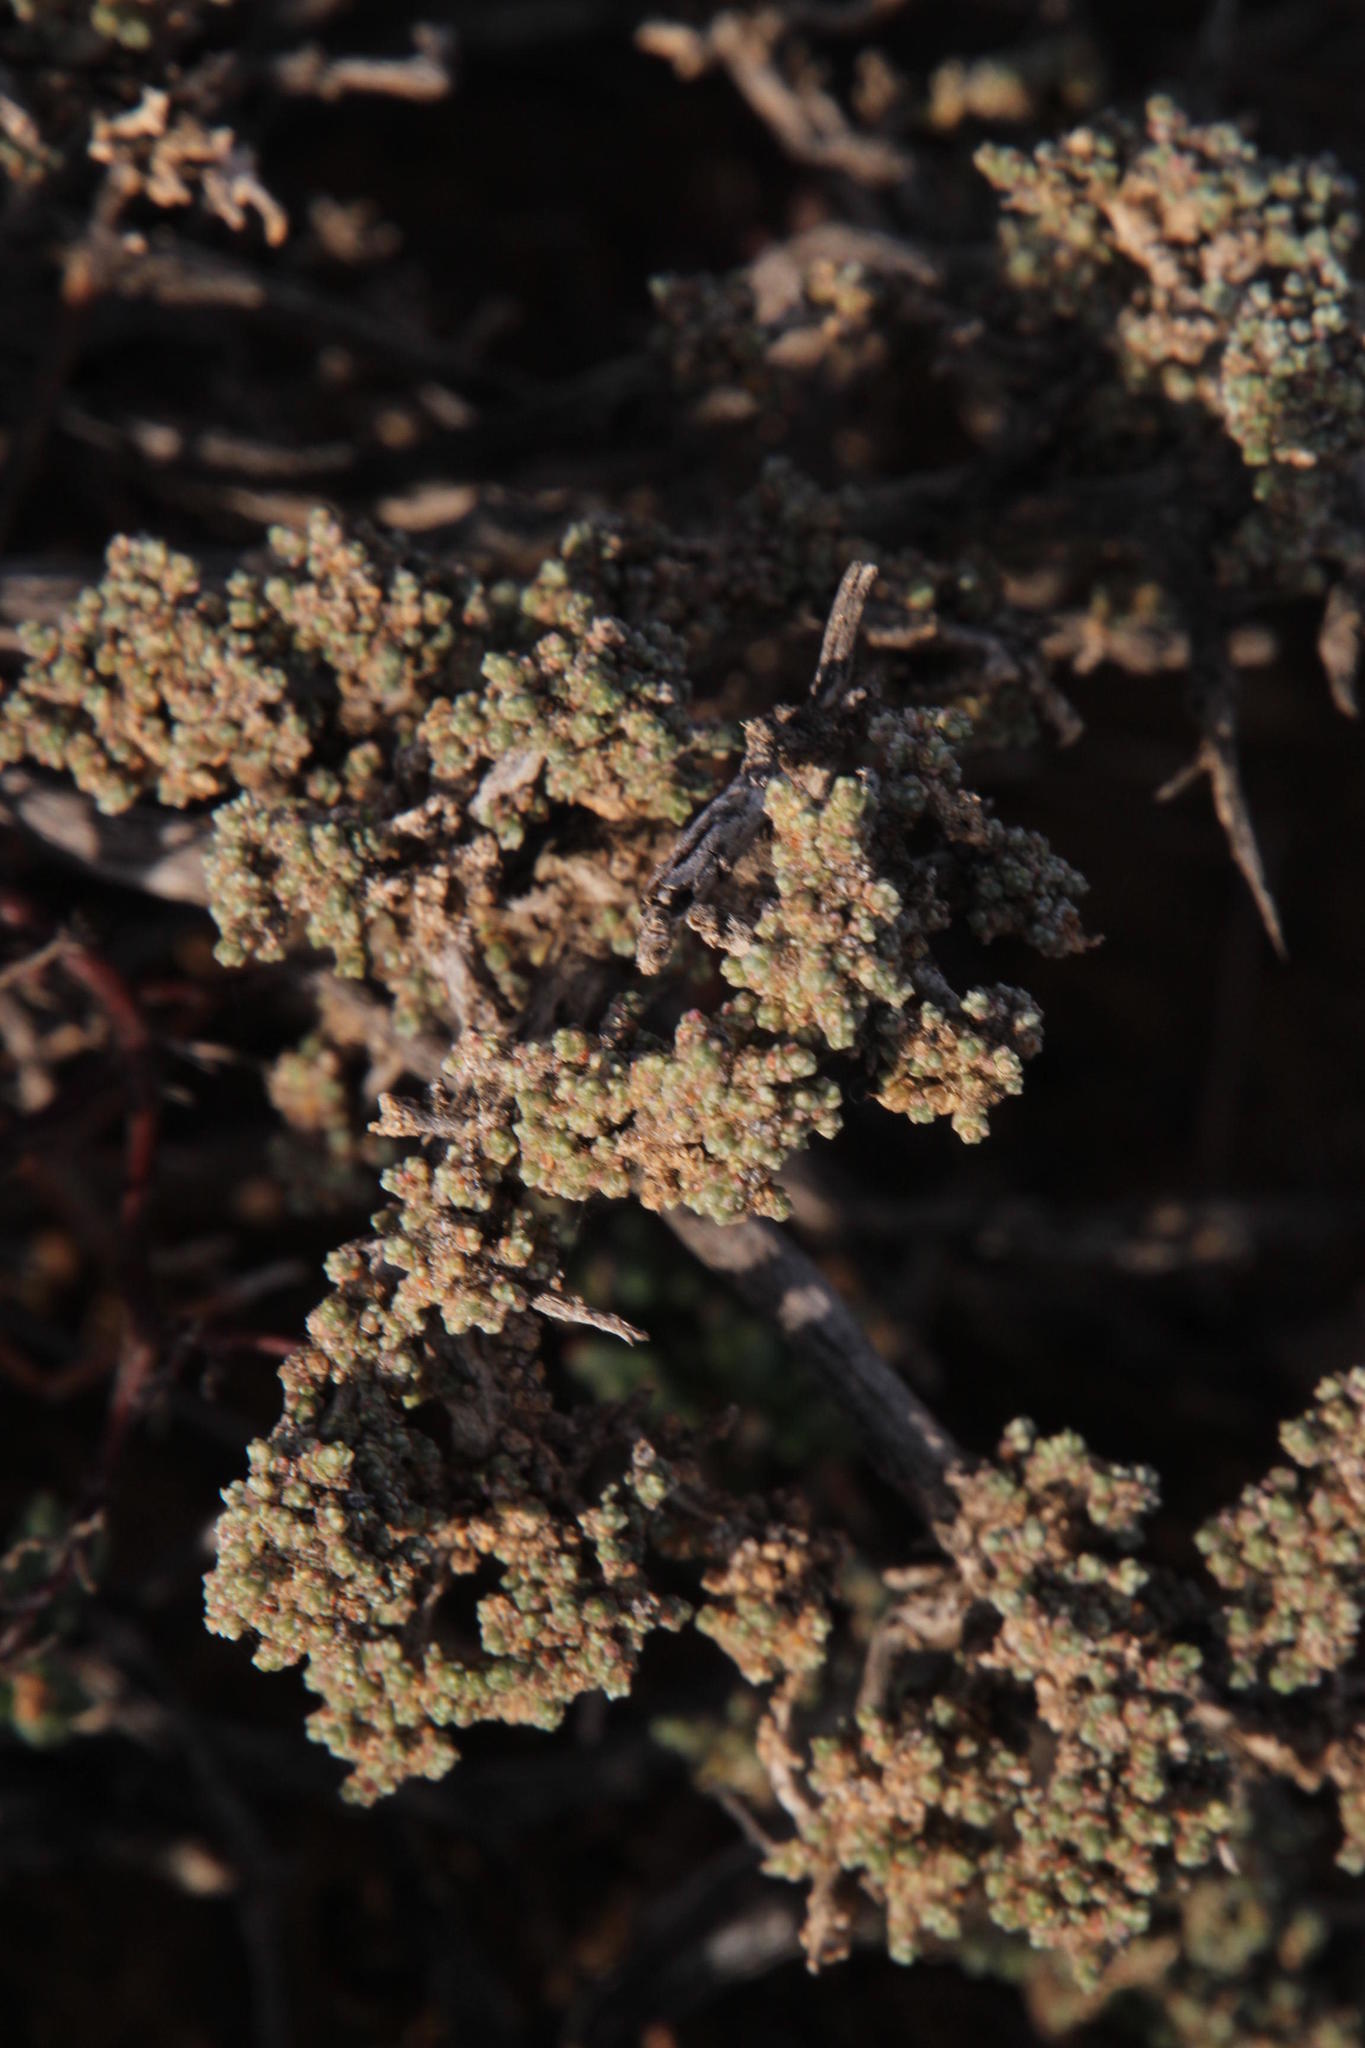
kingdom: Plantae
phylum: Tracheophyta
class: Magnoliopsida
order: Caryophyllales
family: Amaranthaceae
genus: Caroxylon
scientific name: Caroxylon aphyllum
